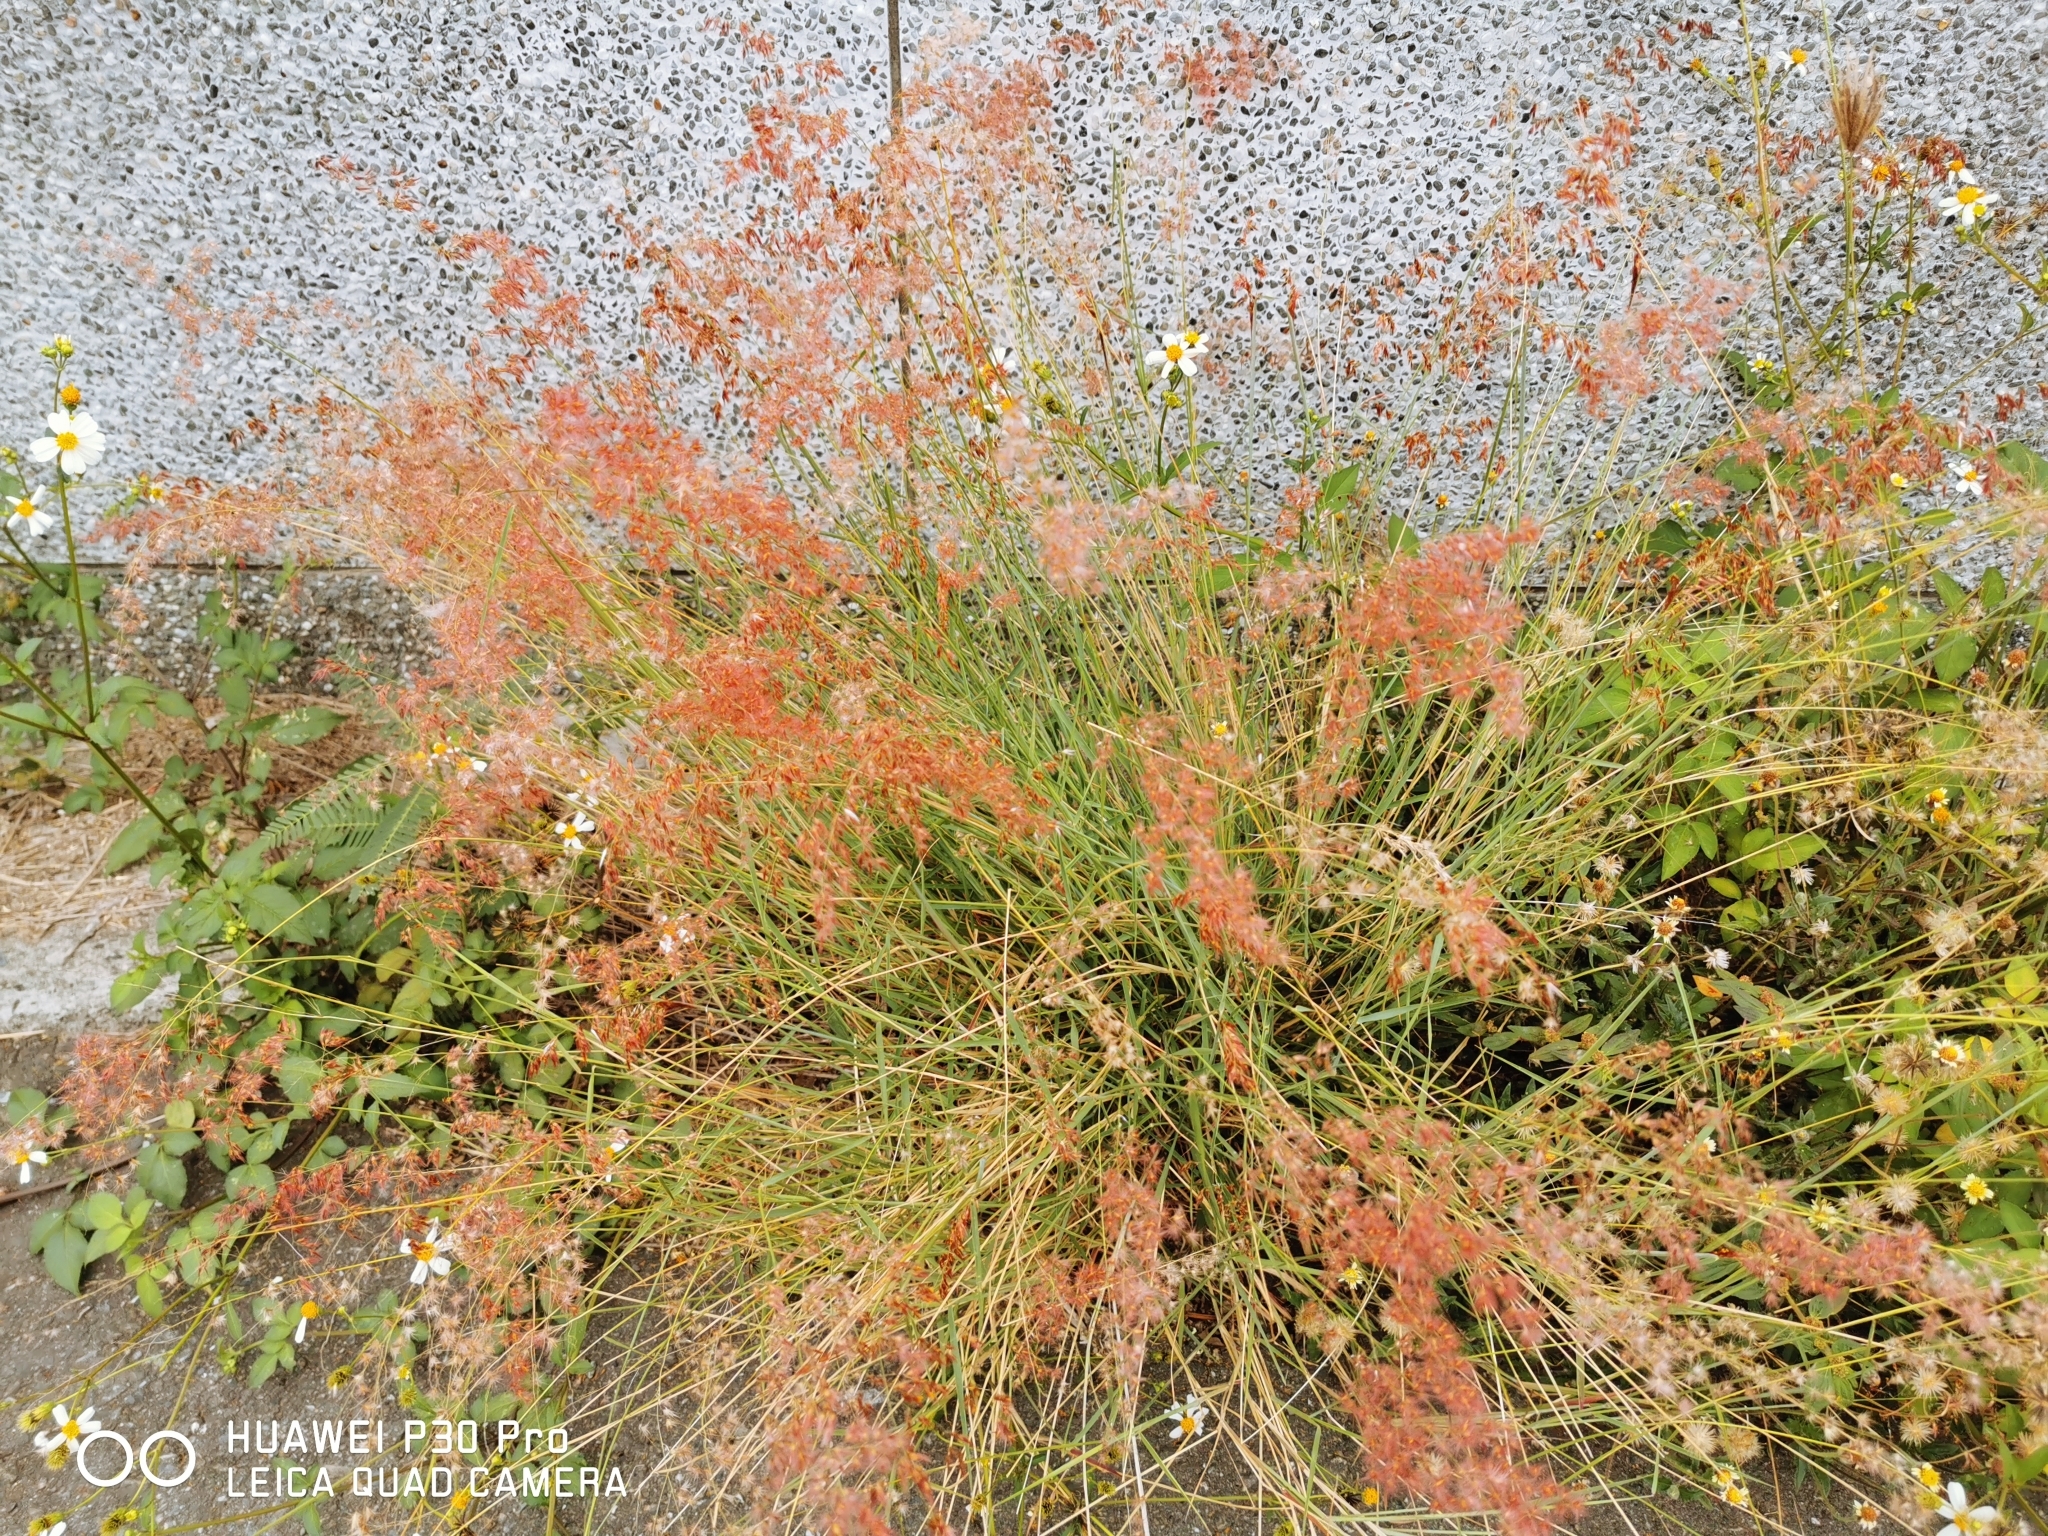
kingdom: Plantae
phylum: Tracheophyta
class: Liliopsida
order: Poales
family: Poaceae
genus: Melinis
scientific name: Melinis repens
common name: Rose natal grass
